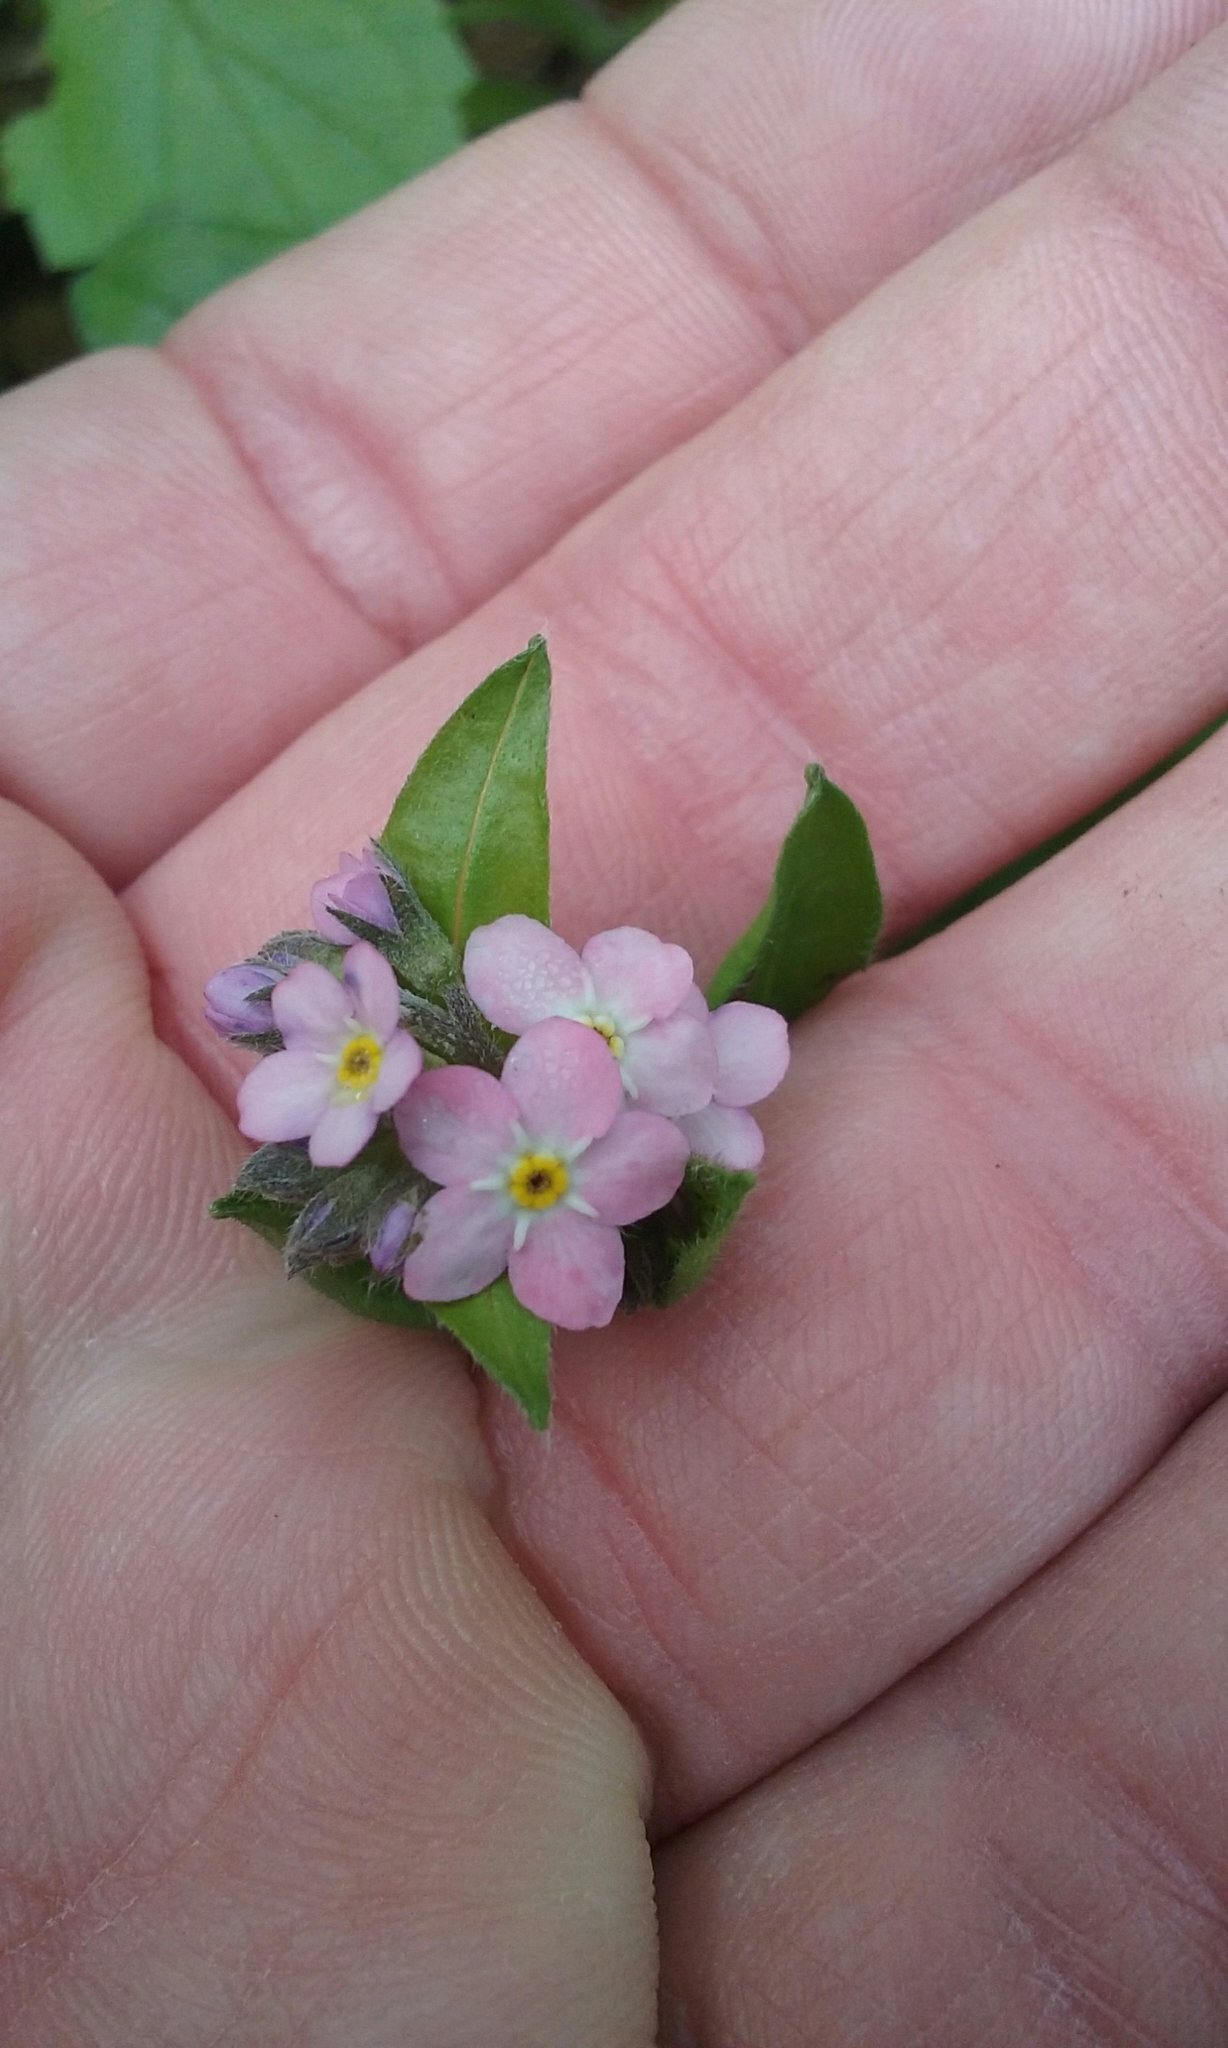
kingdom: Plantae
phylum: Tracheophyta
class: Magnoliopsida
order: Boraginales
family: Boraginaceae
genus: Myosotis
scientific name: Myosotis latifolia
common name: Broadleaf forget-me-not
